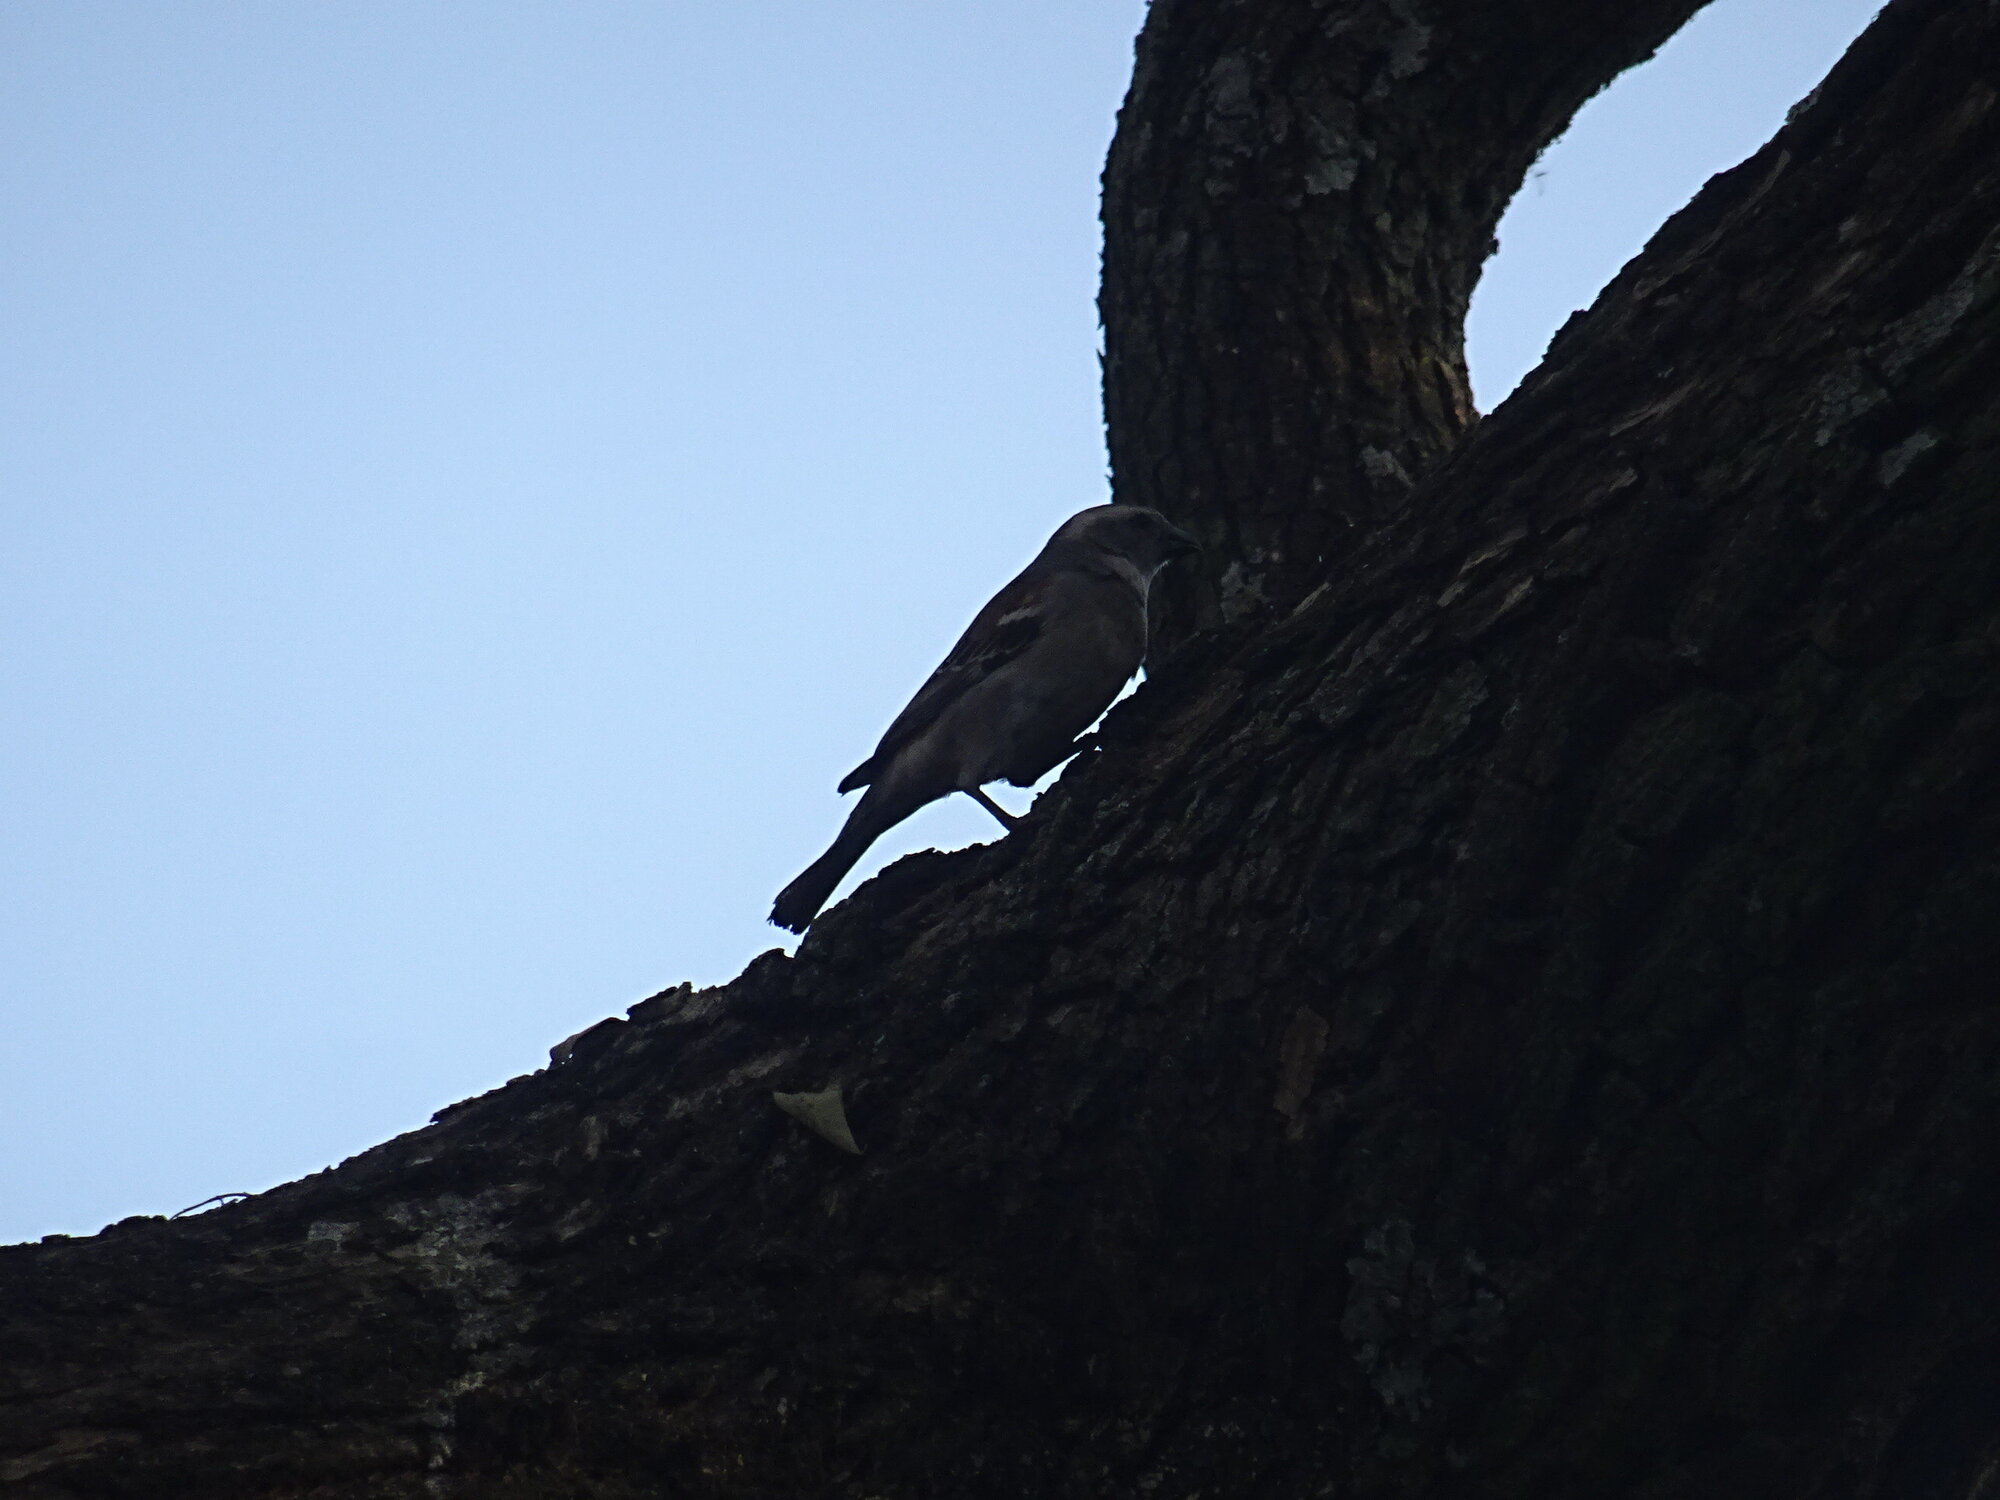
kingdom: Animalia
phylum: Chordata
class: Aves
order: Passeriformes
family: Passeridae
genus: Passer
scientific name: Passer melanurus
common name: Cape sparrow
